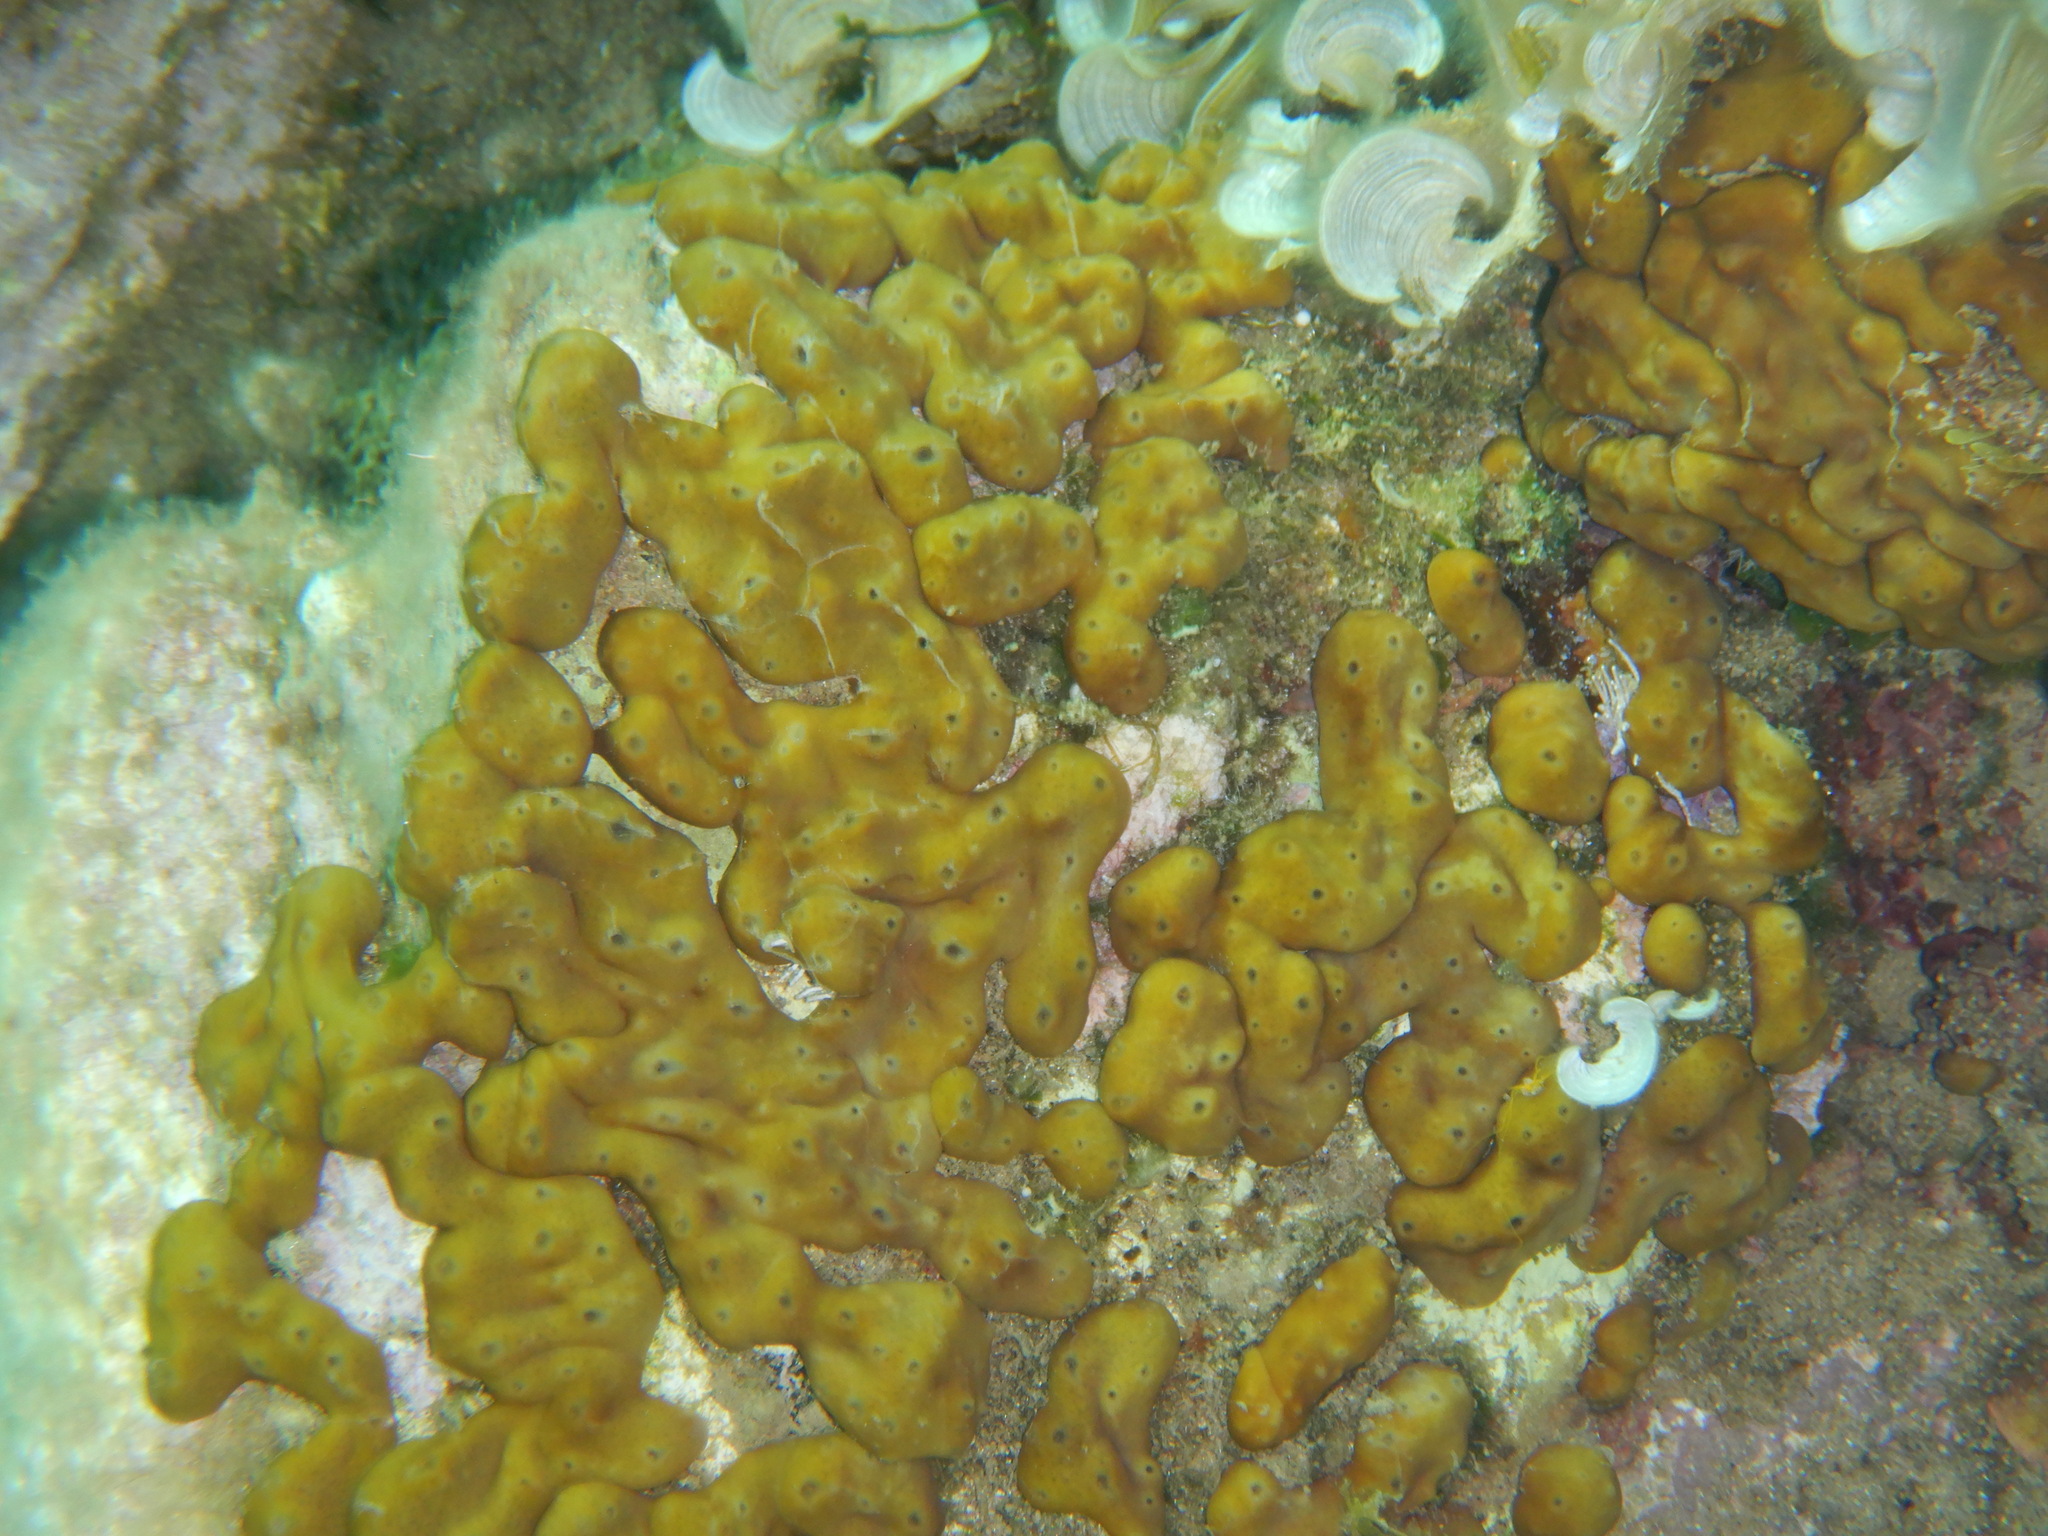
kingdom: Animalia
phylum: Porifera
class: Demospongiae
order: Chondrillida
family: Chondrillidae
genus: Chondrilla
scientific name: Chondrilla nucula
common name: Chicken liver sponge
